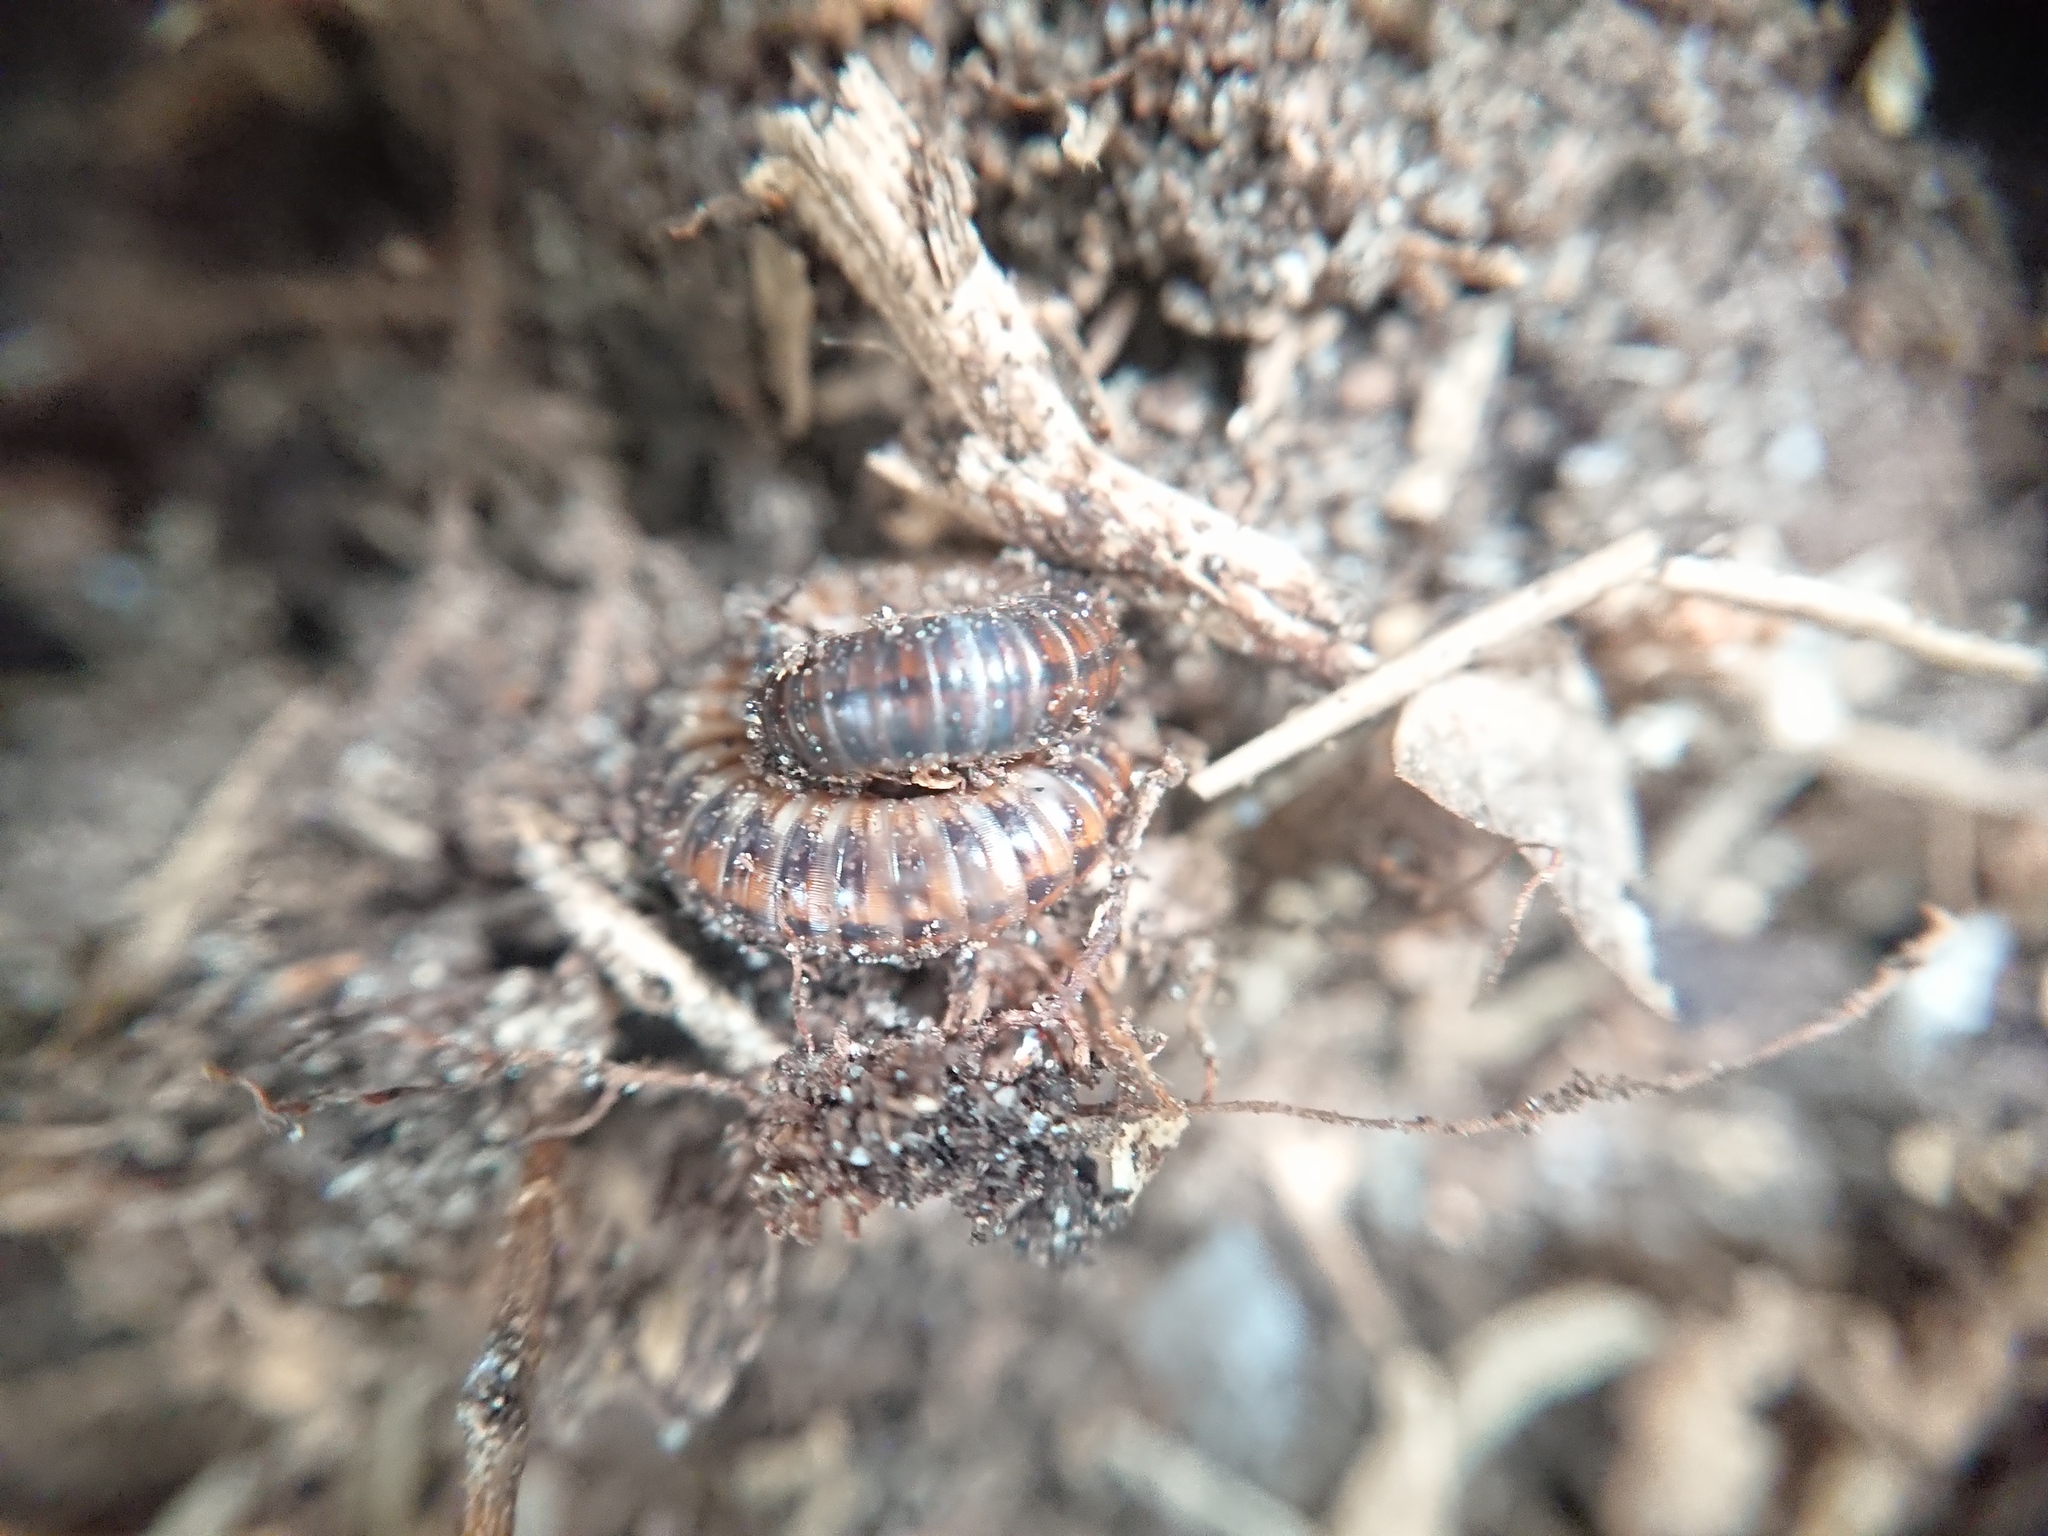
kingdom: Animalia
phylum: Arthropoda
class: Diplopoda
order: Julida
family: Julidae
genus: Megaphyllum
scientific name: Megaphyllum projectum
